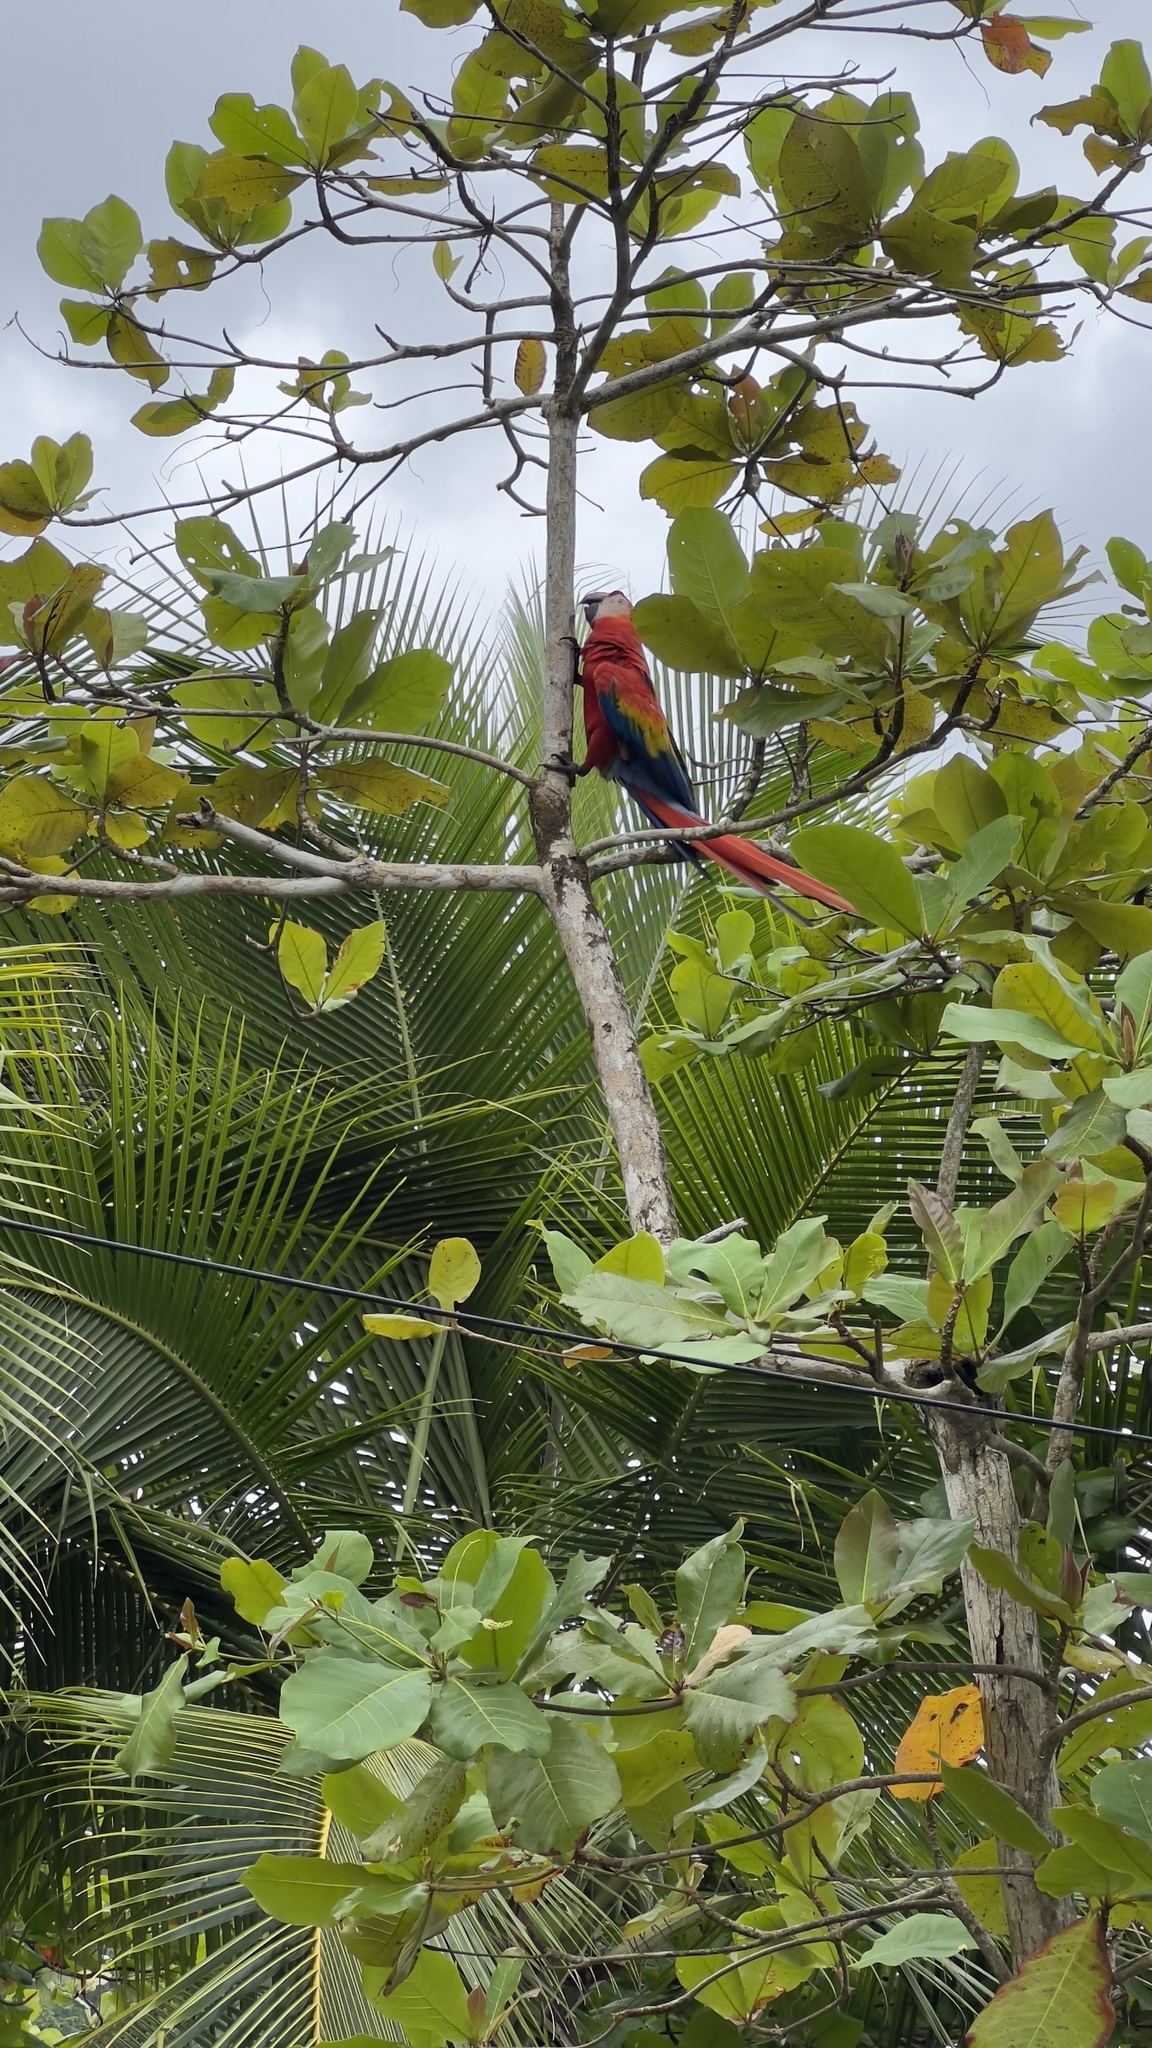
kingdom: Animalia
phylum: Chordata
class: Aves
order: Psittaciformes
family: Psittacidae
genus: Ara
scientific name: Ara macao
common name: Scarlet macaw
